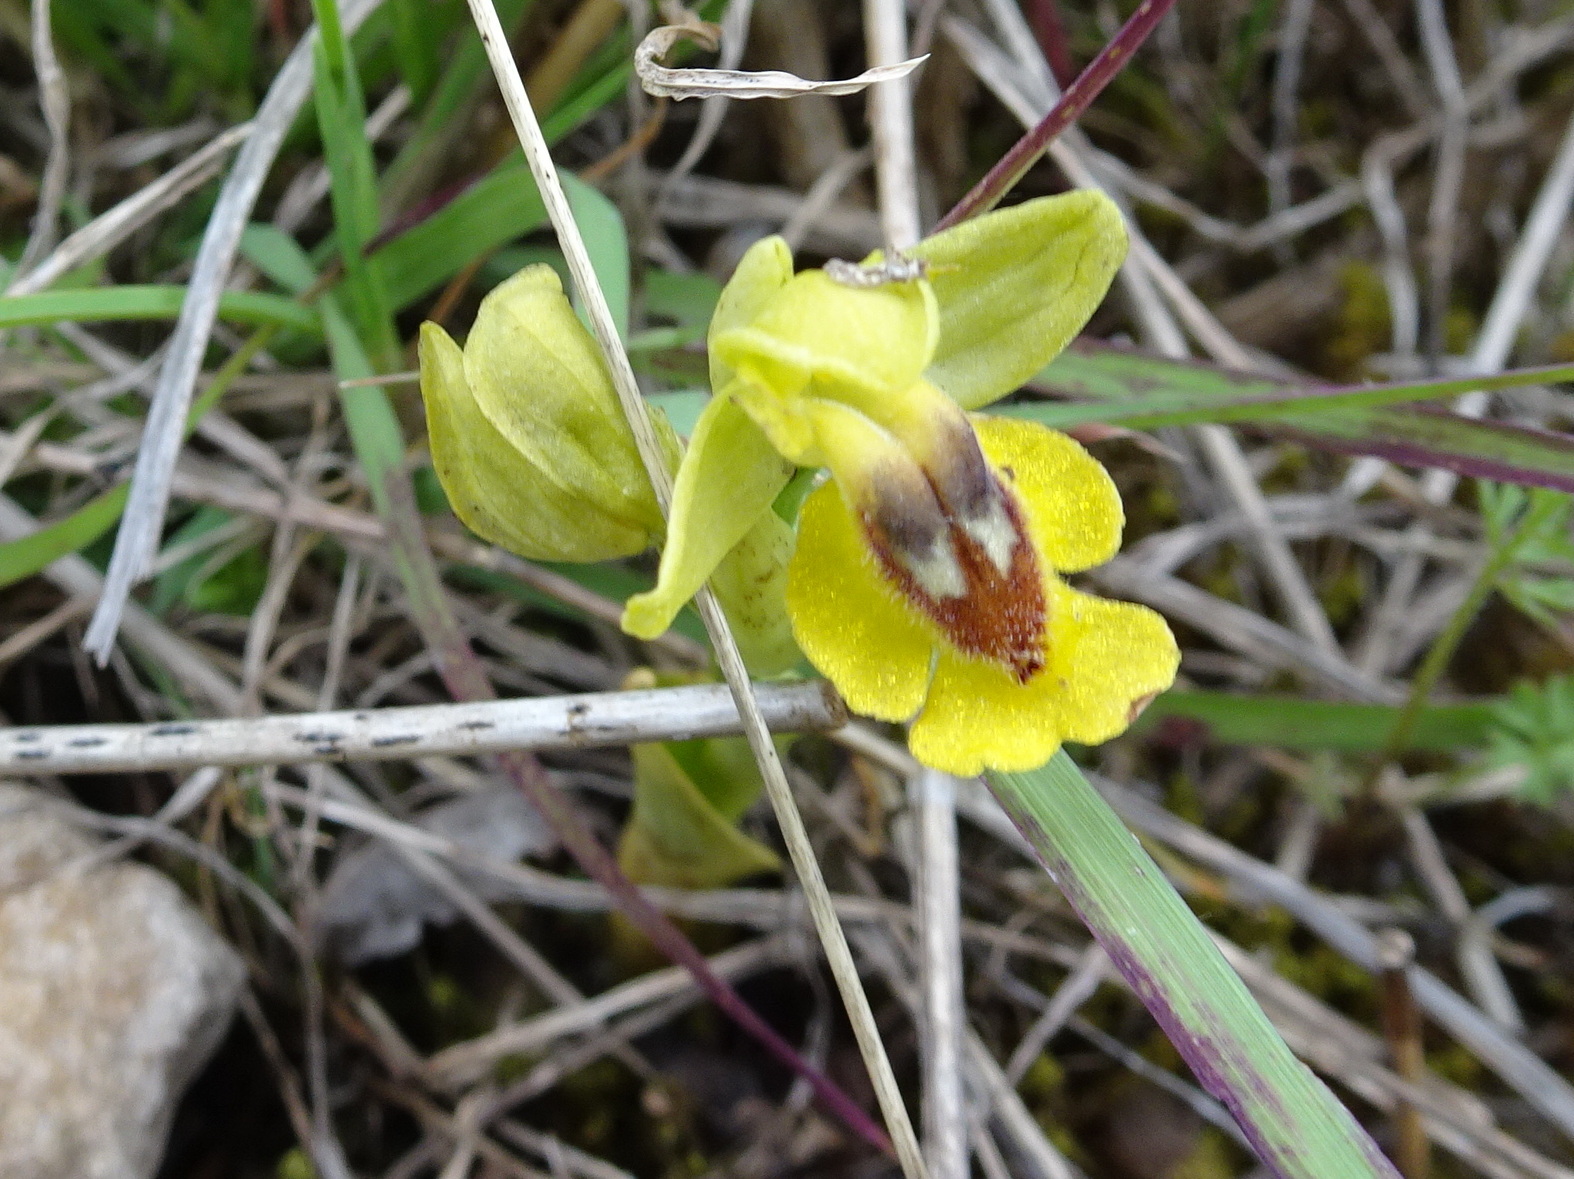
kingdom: Plantae
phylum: Tracheophyta
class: Liliopsida
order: Asparagales
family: Orchidaceae
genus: Ophrys
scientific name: Ophrys lutea
